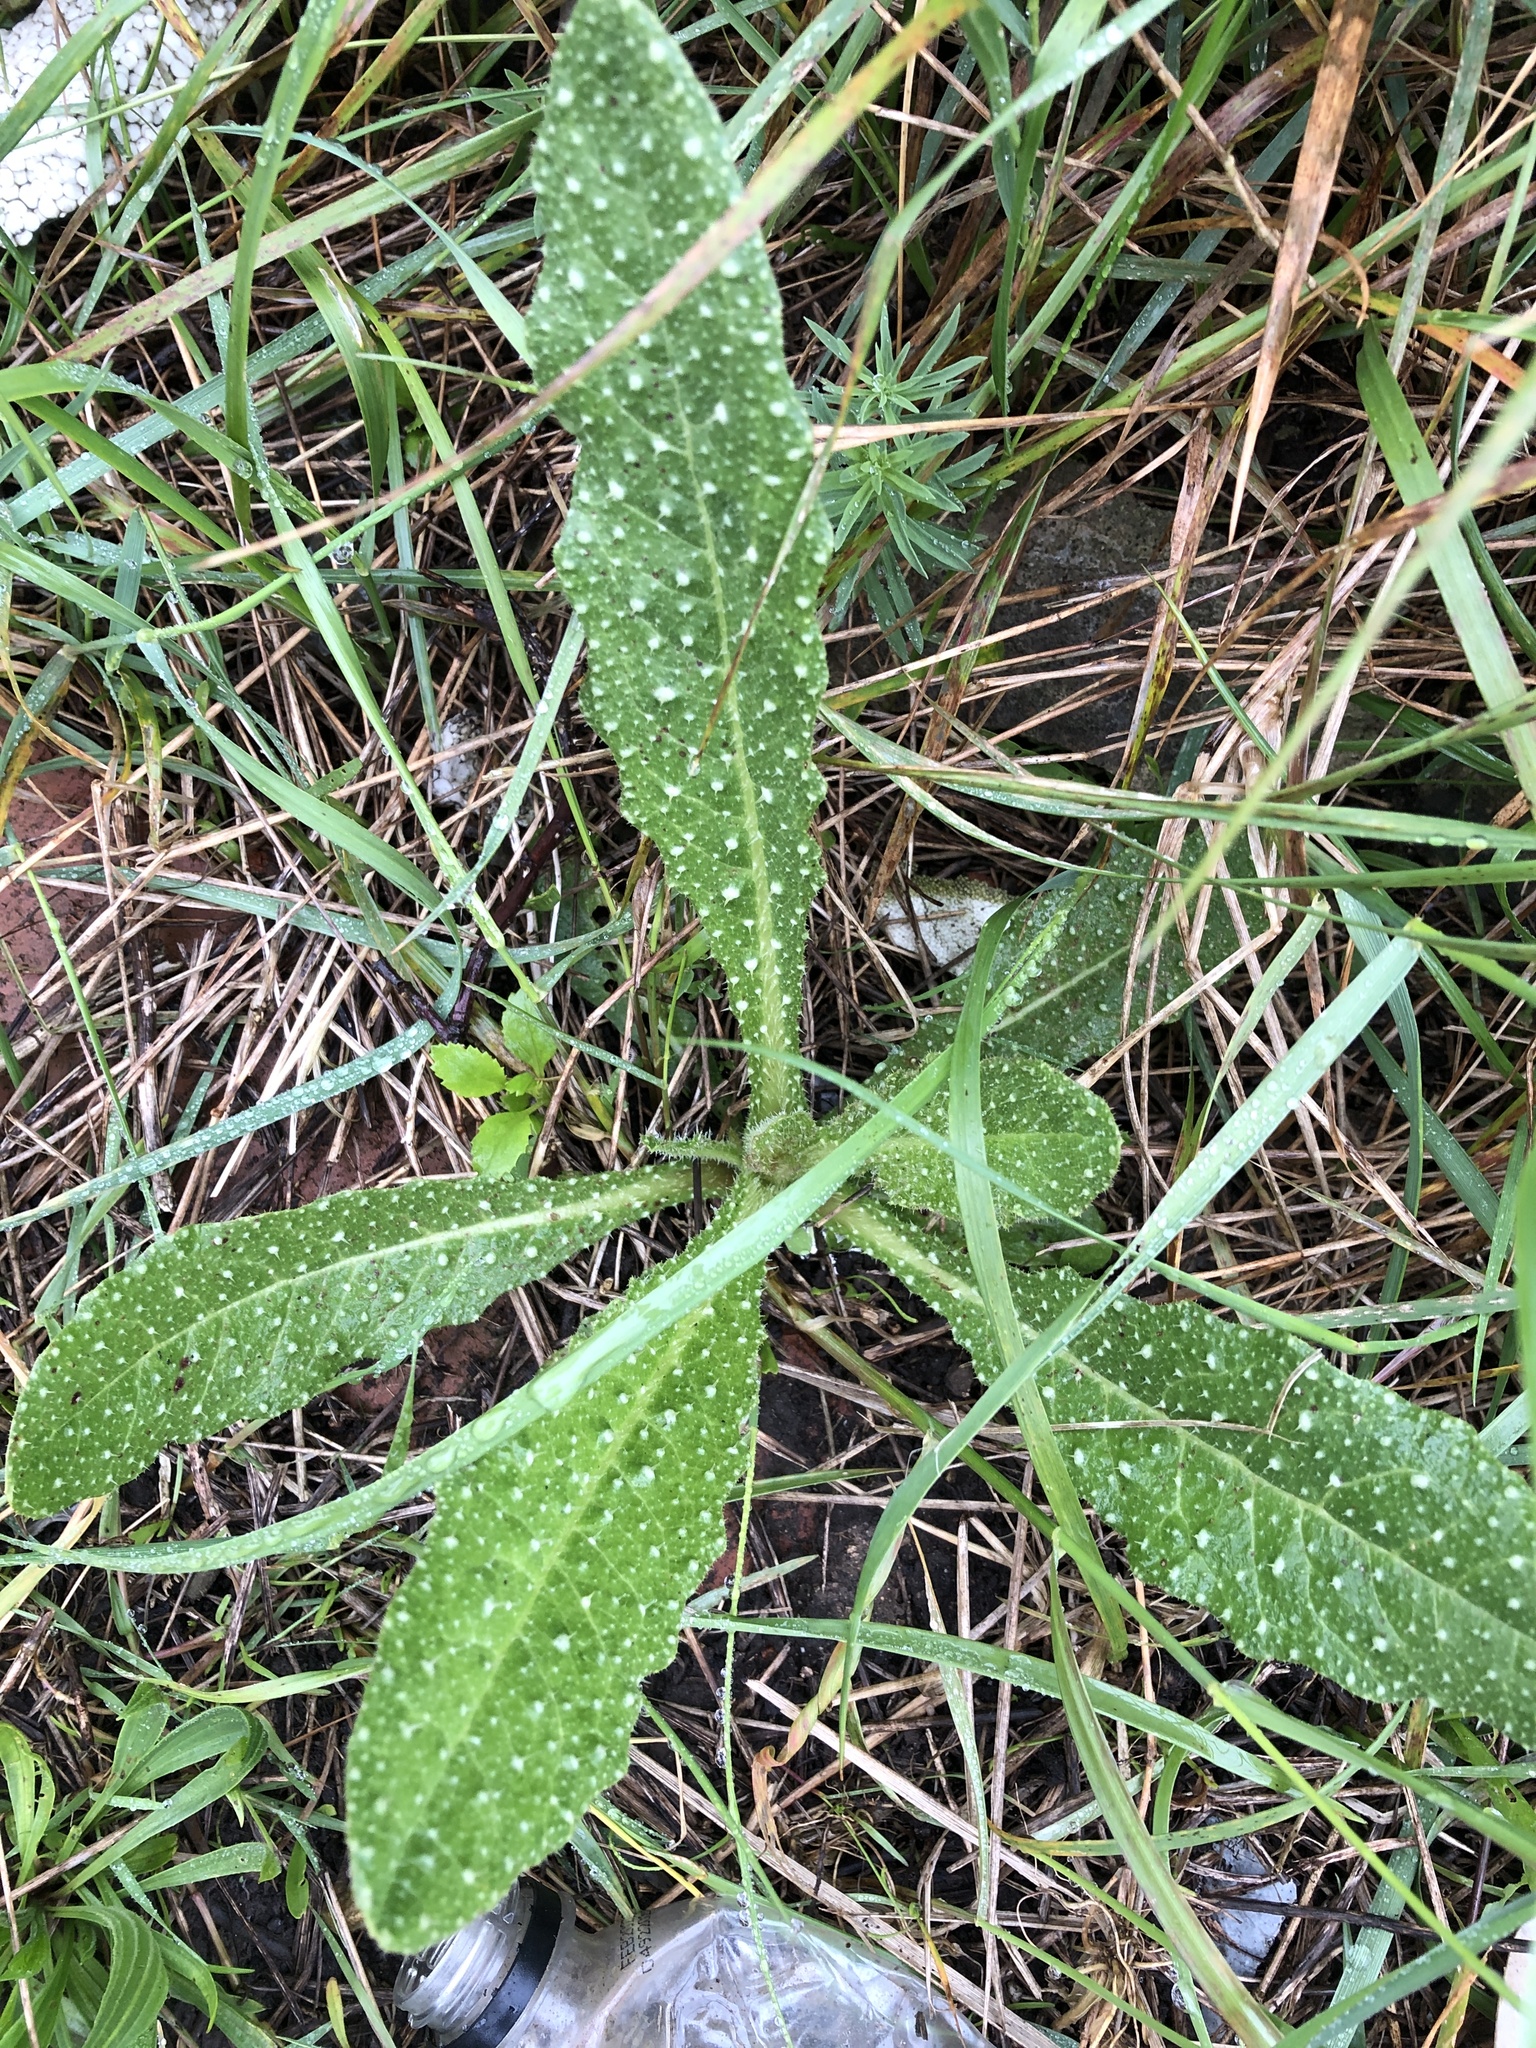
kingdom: Plantae
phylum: Tracheophyta
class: Magnoliopsida
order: Asterales
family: Asteraceae
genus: Helminthotheca
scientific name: Helminthotheca echioides
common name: Ox-tongue
